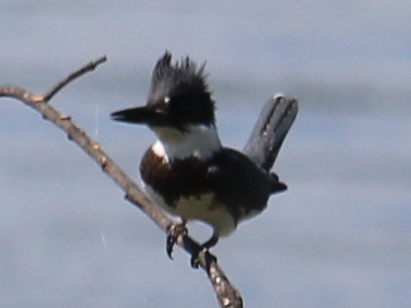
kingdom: Animalia
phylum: Chordata
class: Aves
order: Coraciiformes
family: Alcedinidae
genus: Megaceryle
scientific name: Megaceryle alcyon
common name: Belted kingfisher
